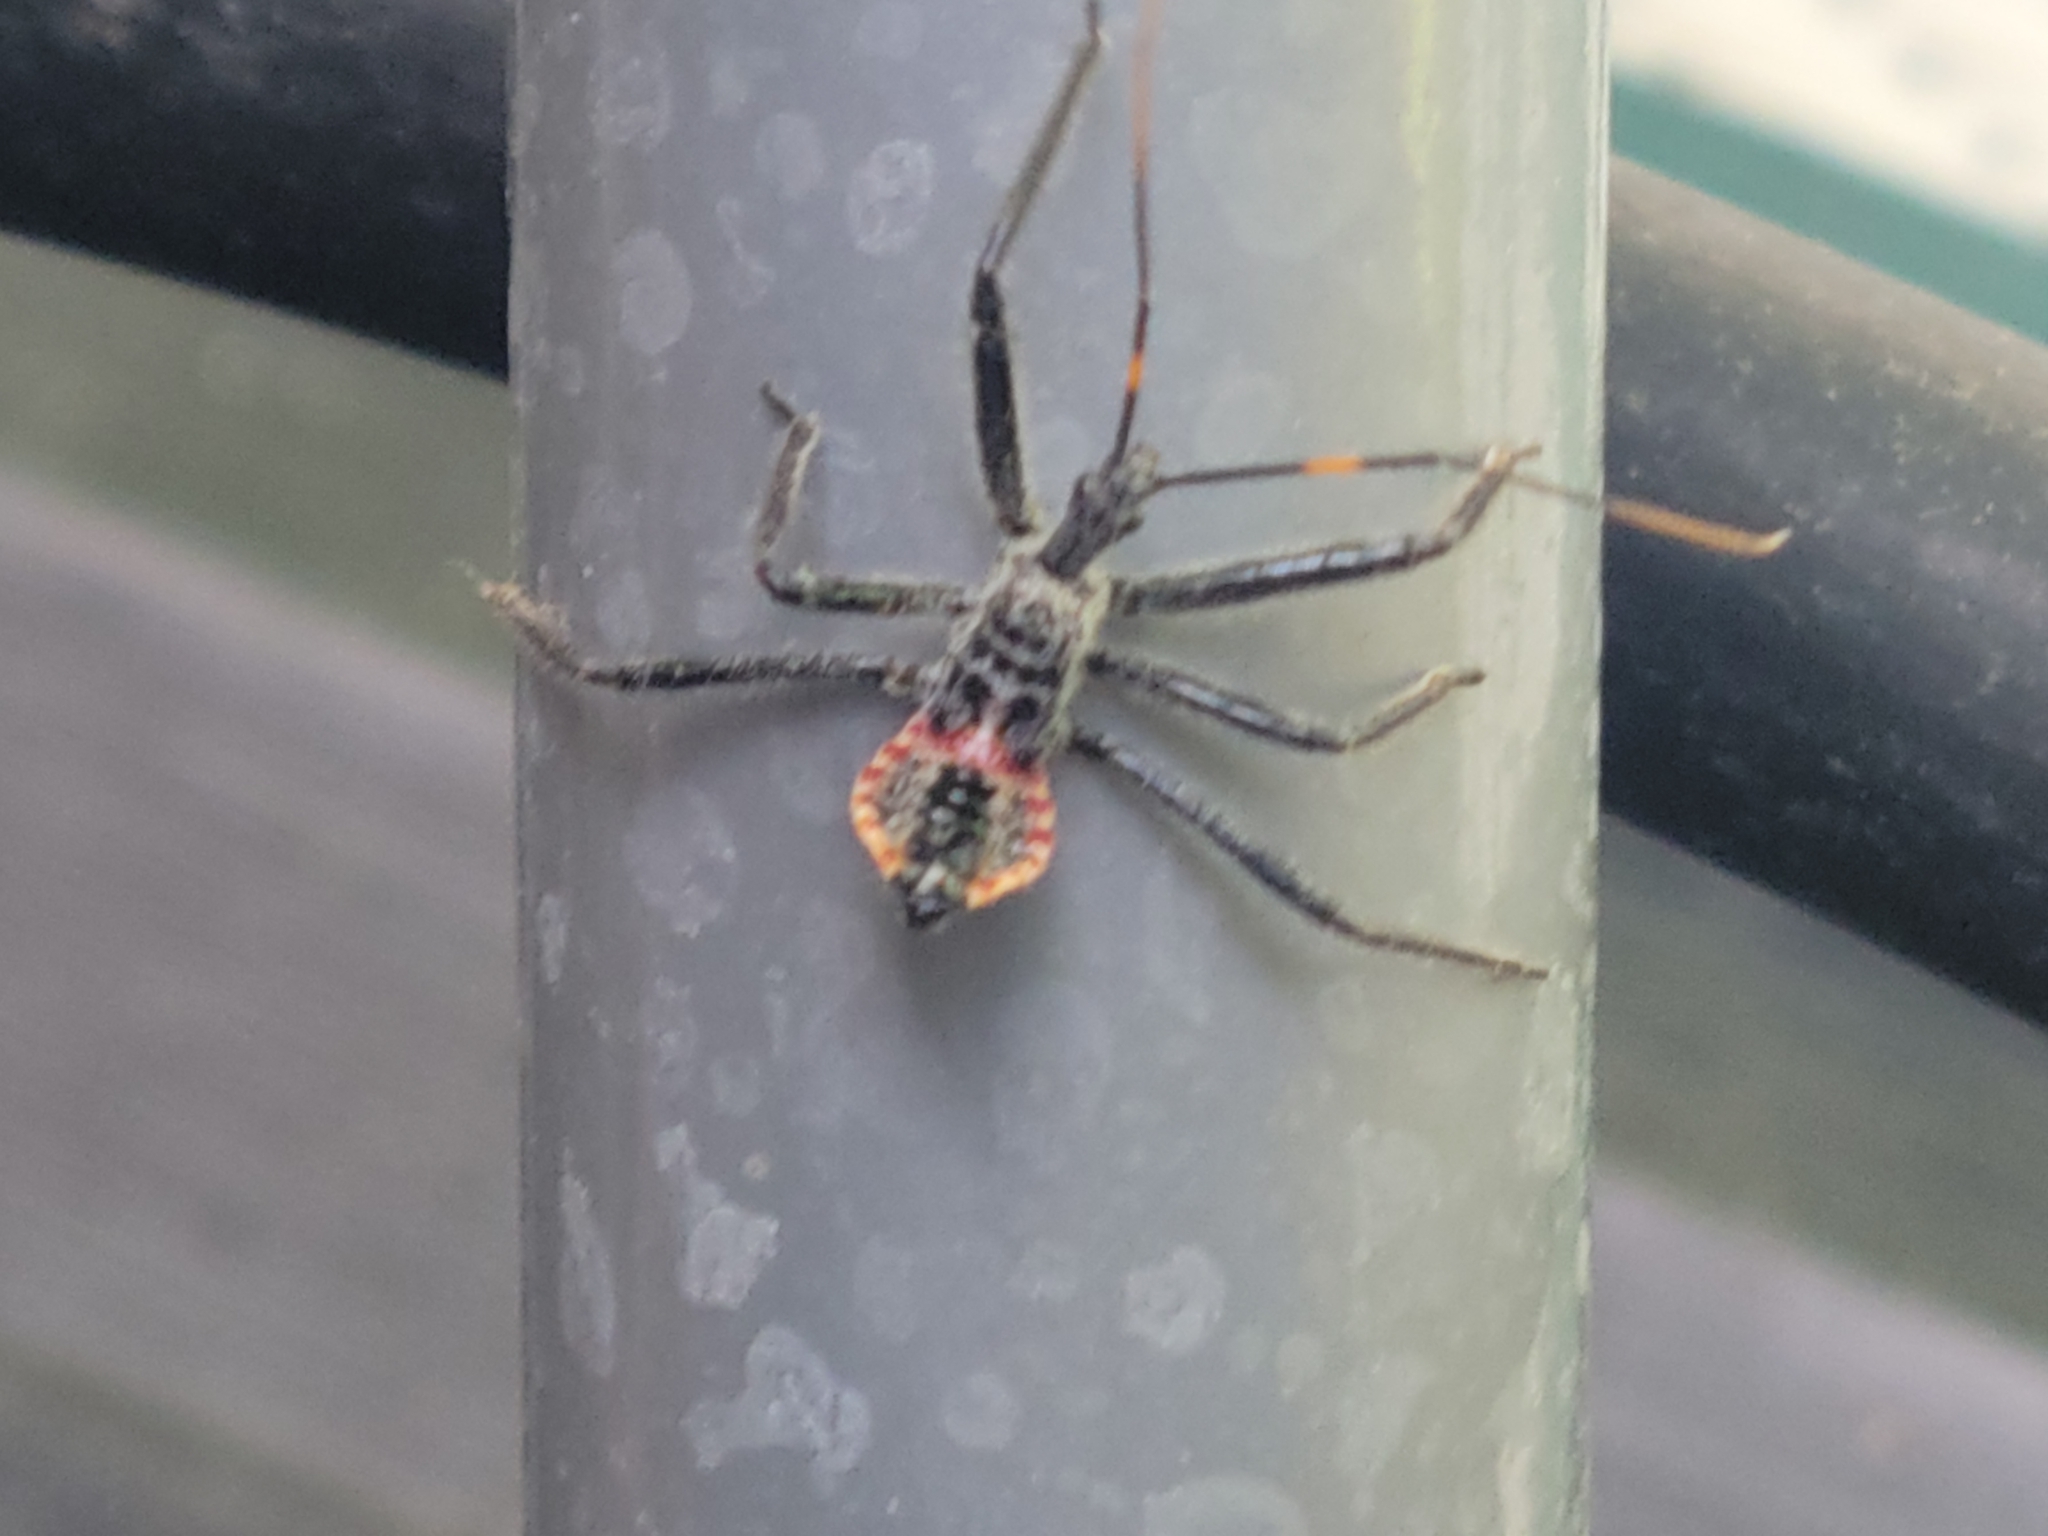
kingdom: Animalia
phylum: Arthropoda
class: Insecta
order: Hemiptera
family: Reduviidae
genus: Arilus
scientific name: Arilus cristatus
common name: North american wheel bug
